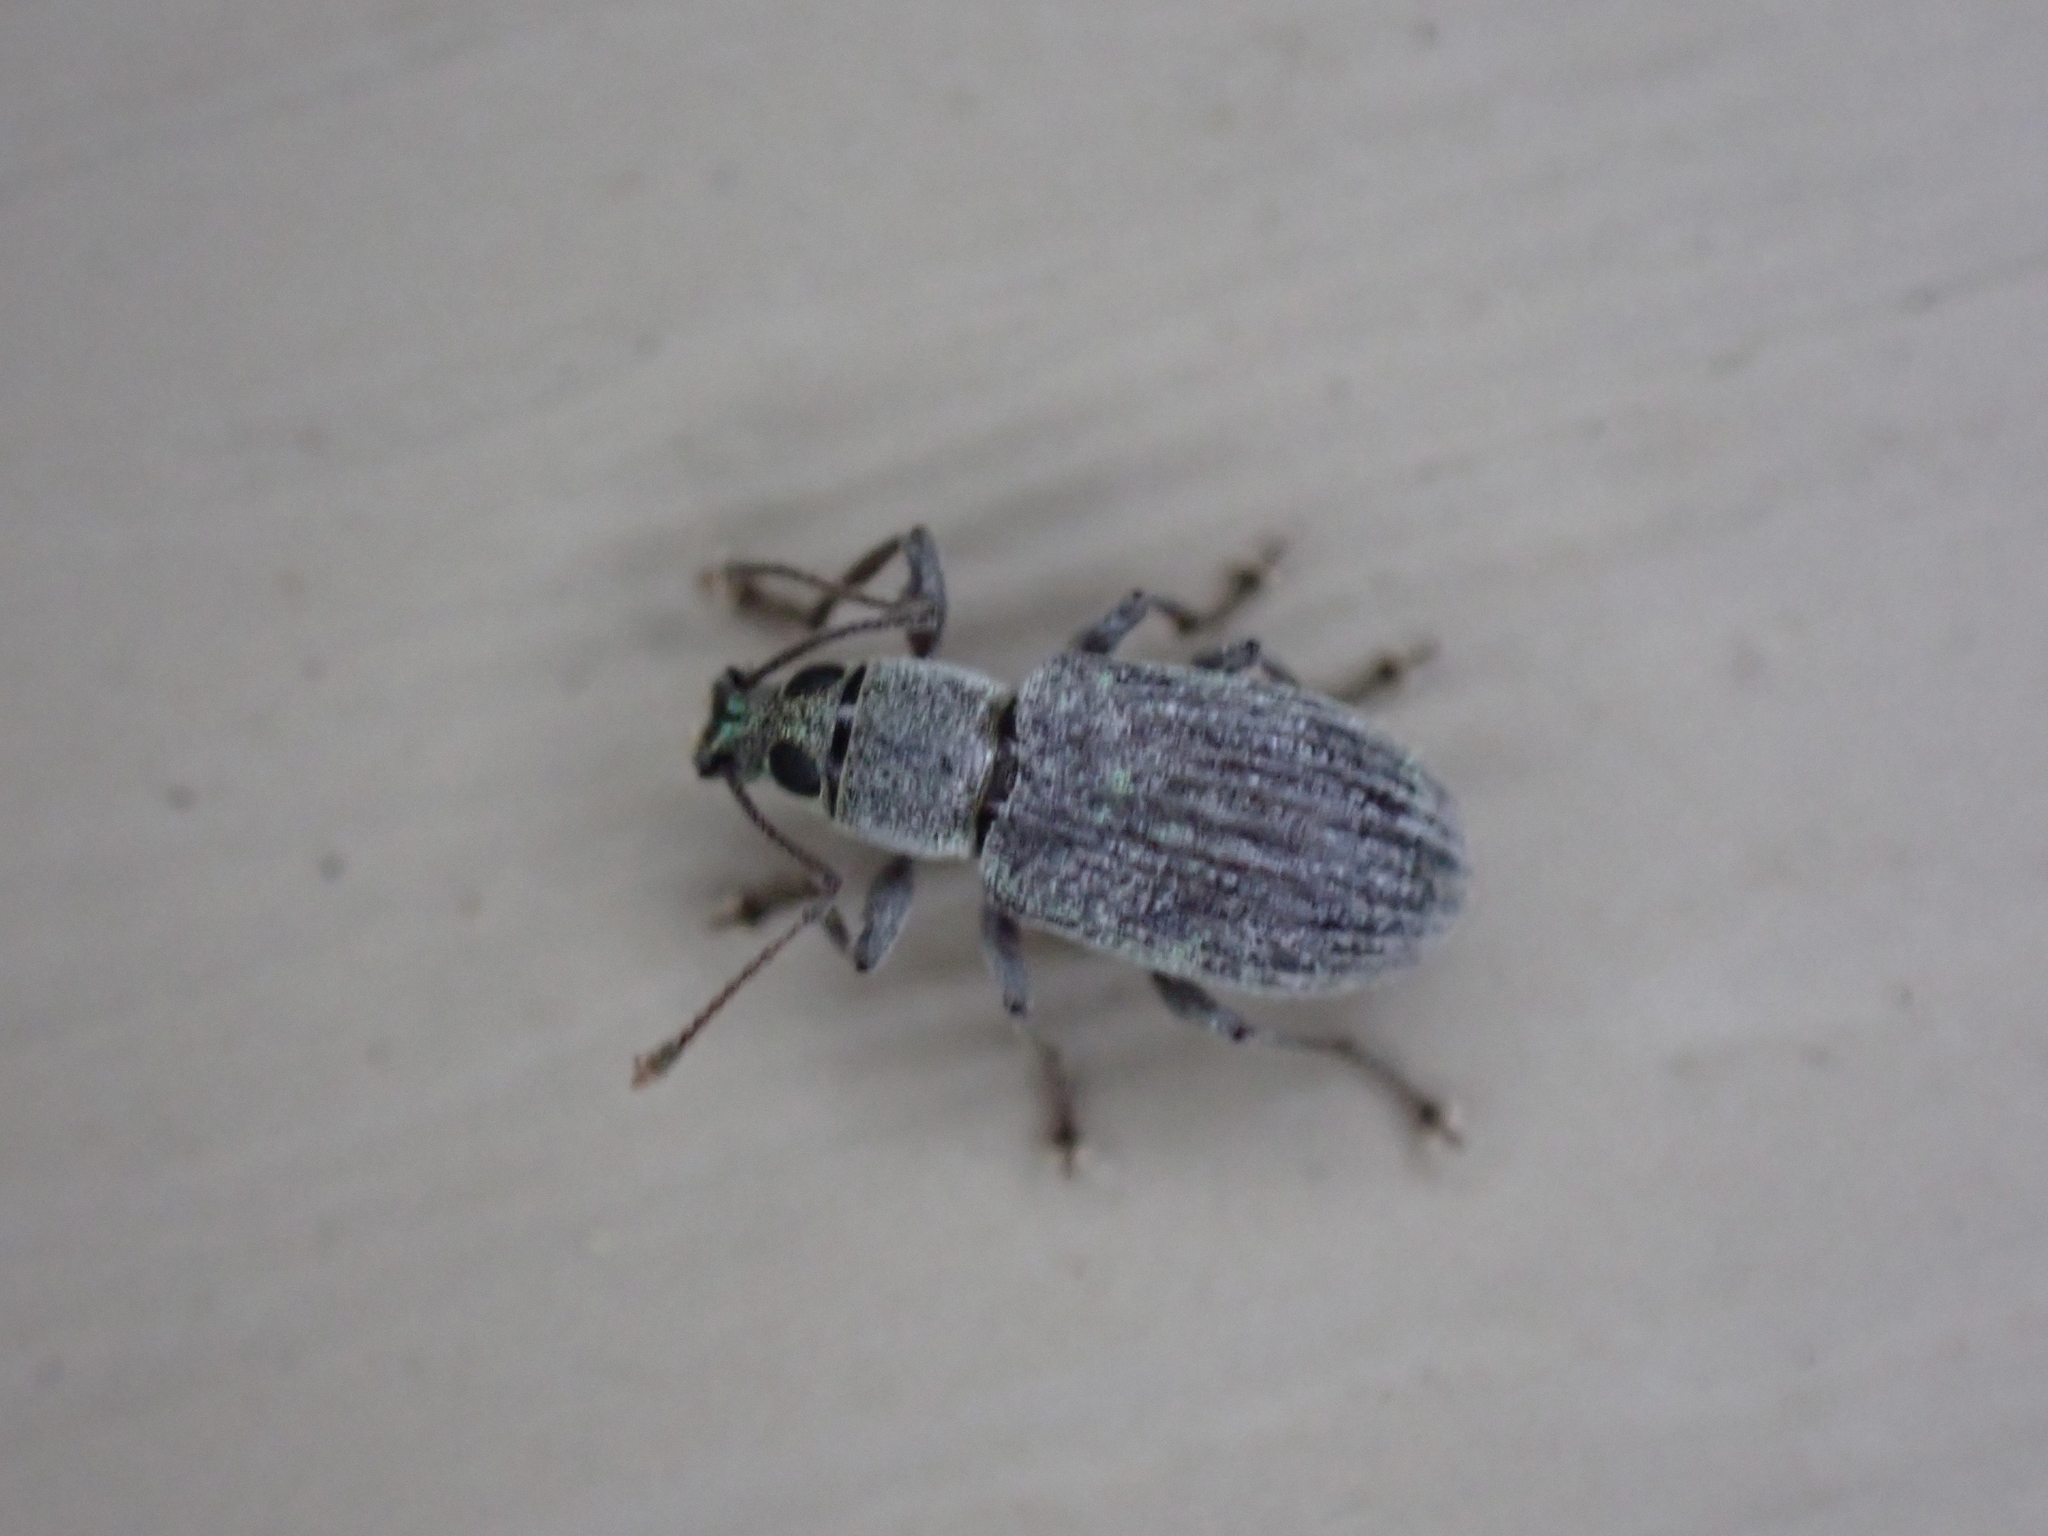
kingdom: Animalia
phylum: Arthropoda
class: Insecta
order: Coleoptera
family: Curculionidae
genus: Cyrtepistomus
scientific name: Cyrtepistomus castaneus
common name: Weevil
